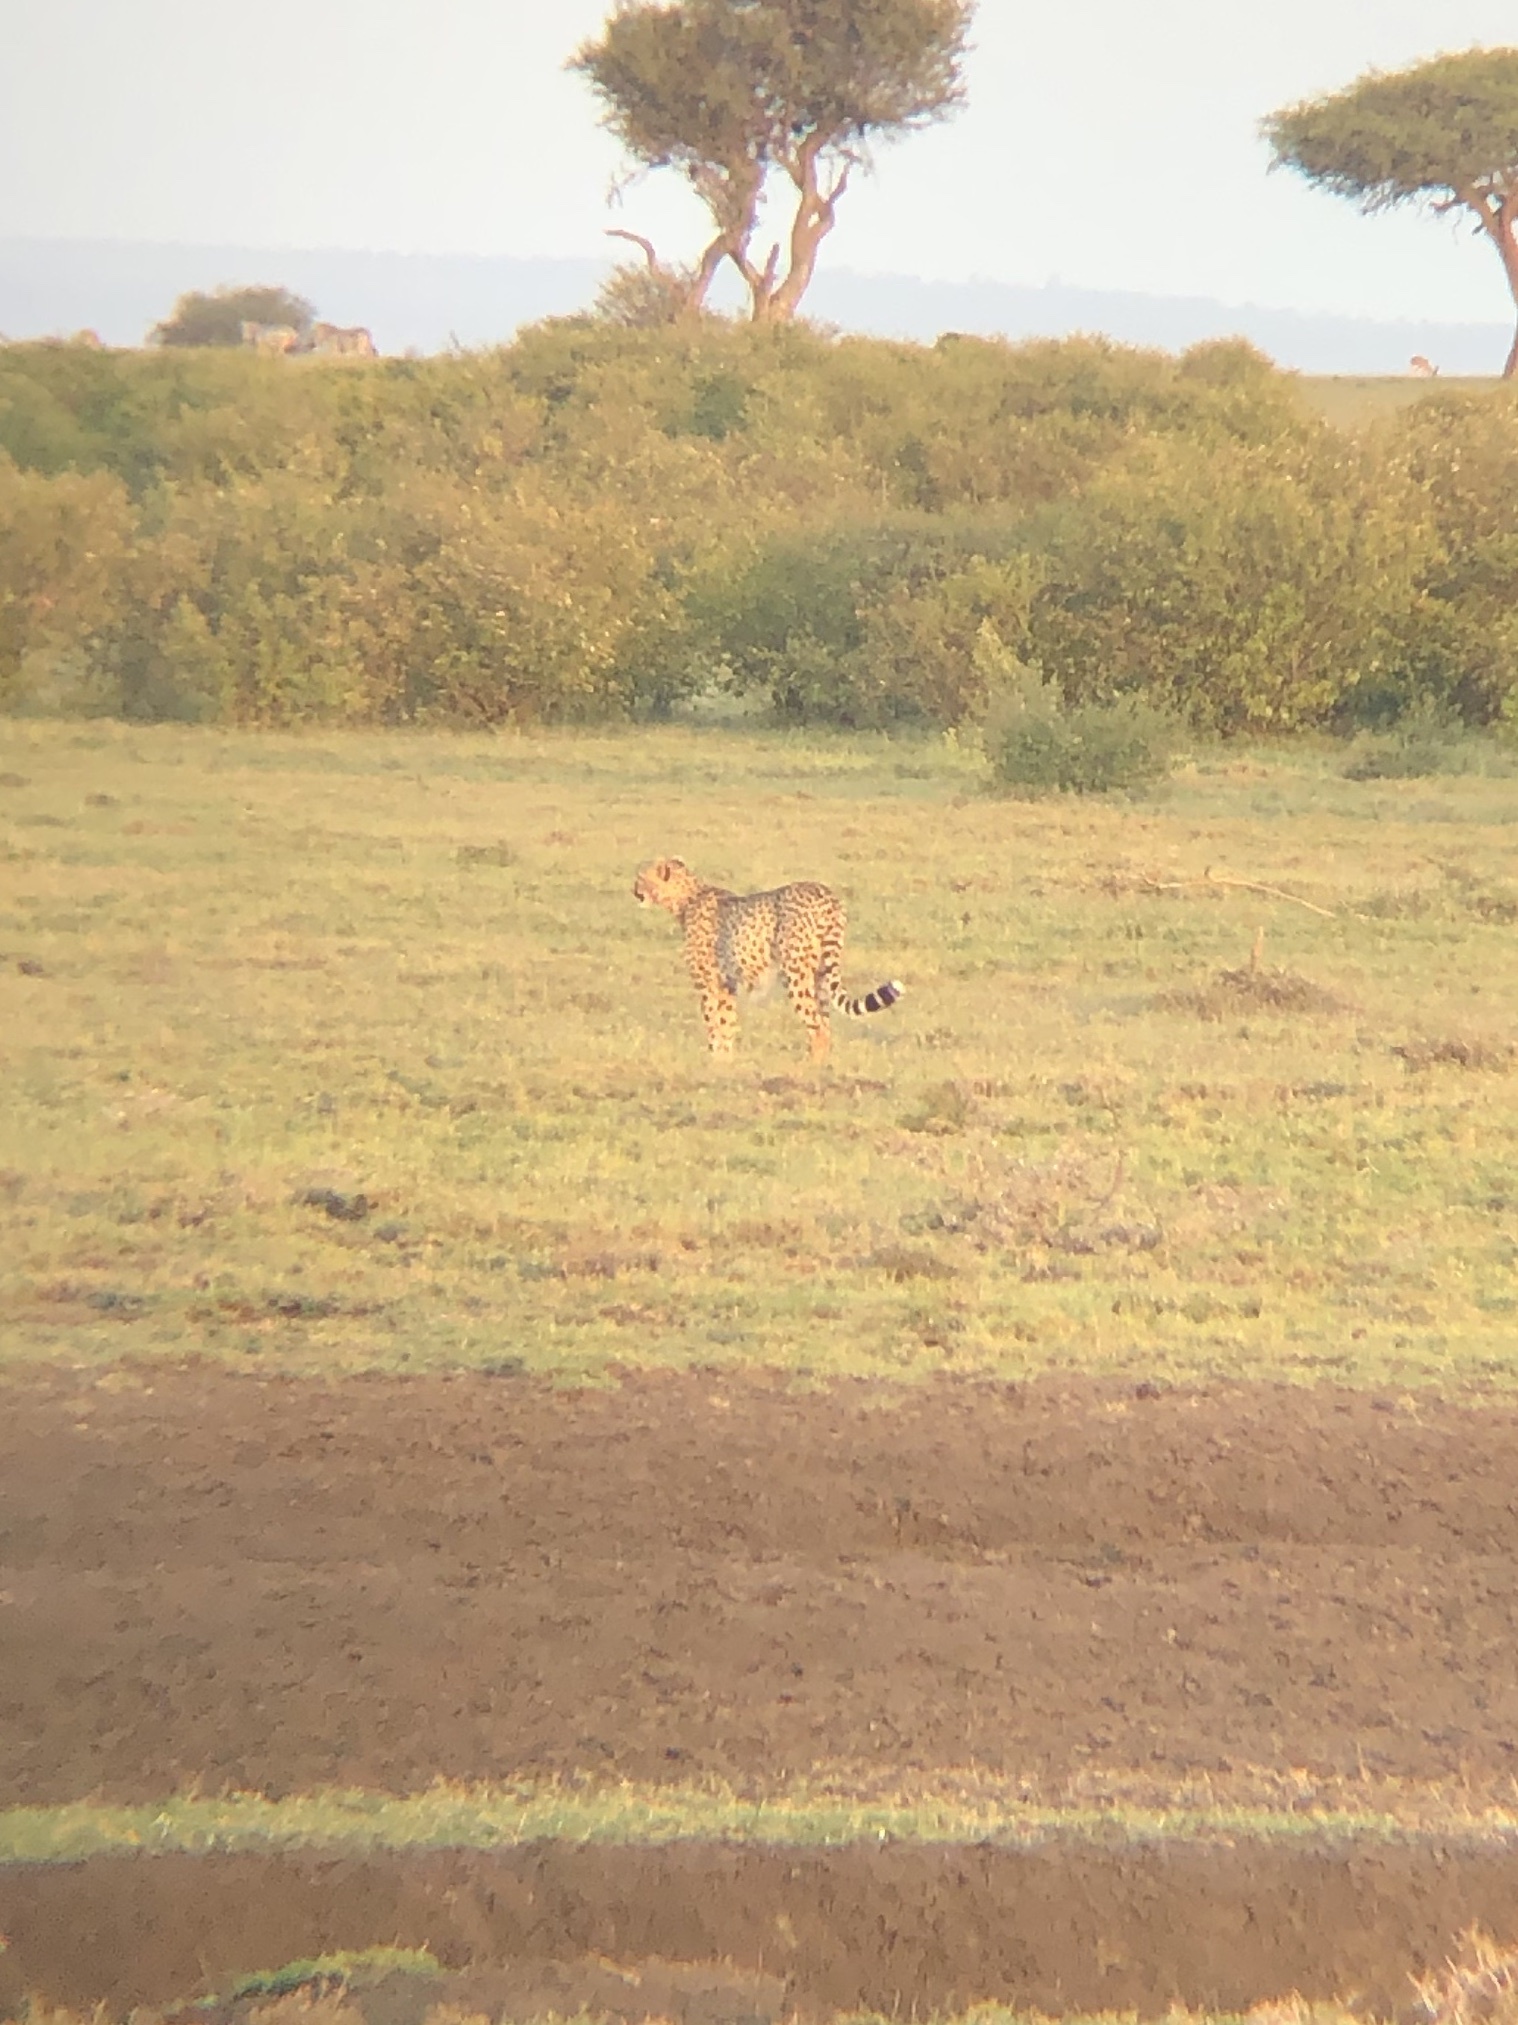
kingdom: Animalia
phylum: Chordata
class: Mammalia
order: Carnivora
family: Felidae
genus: Acinonyx
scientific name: Acinonyx jubatus
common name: Cheetah
